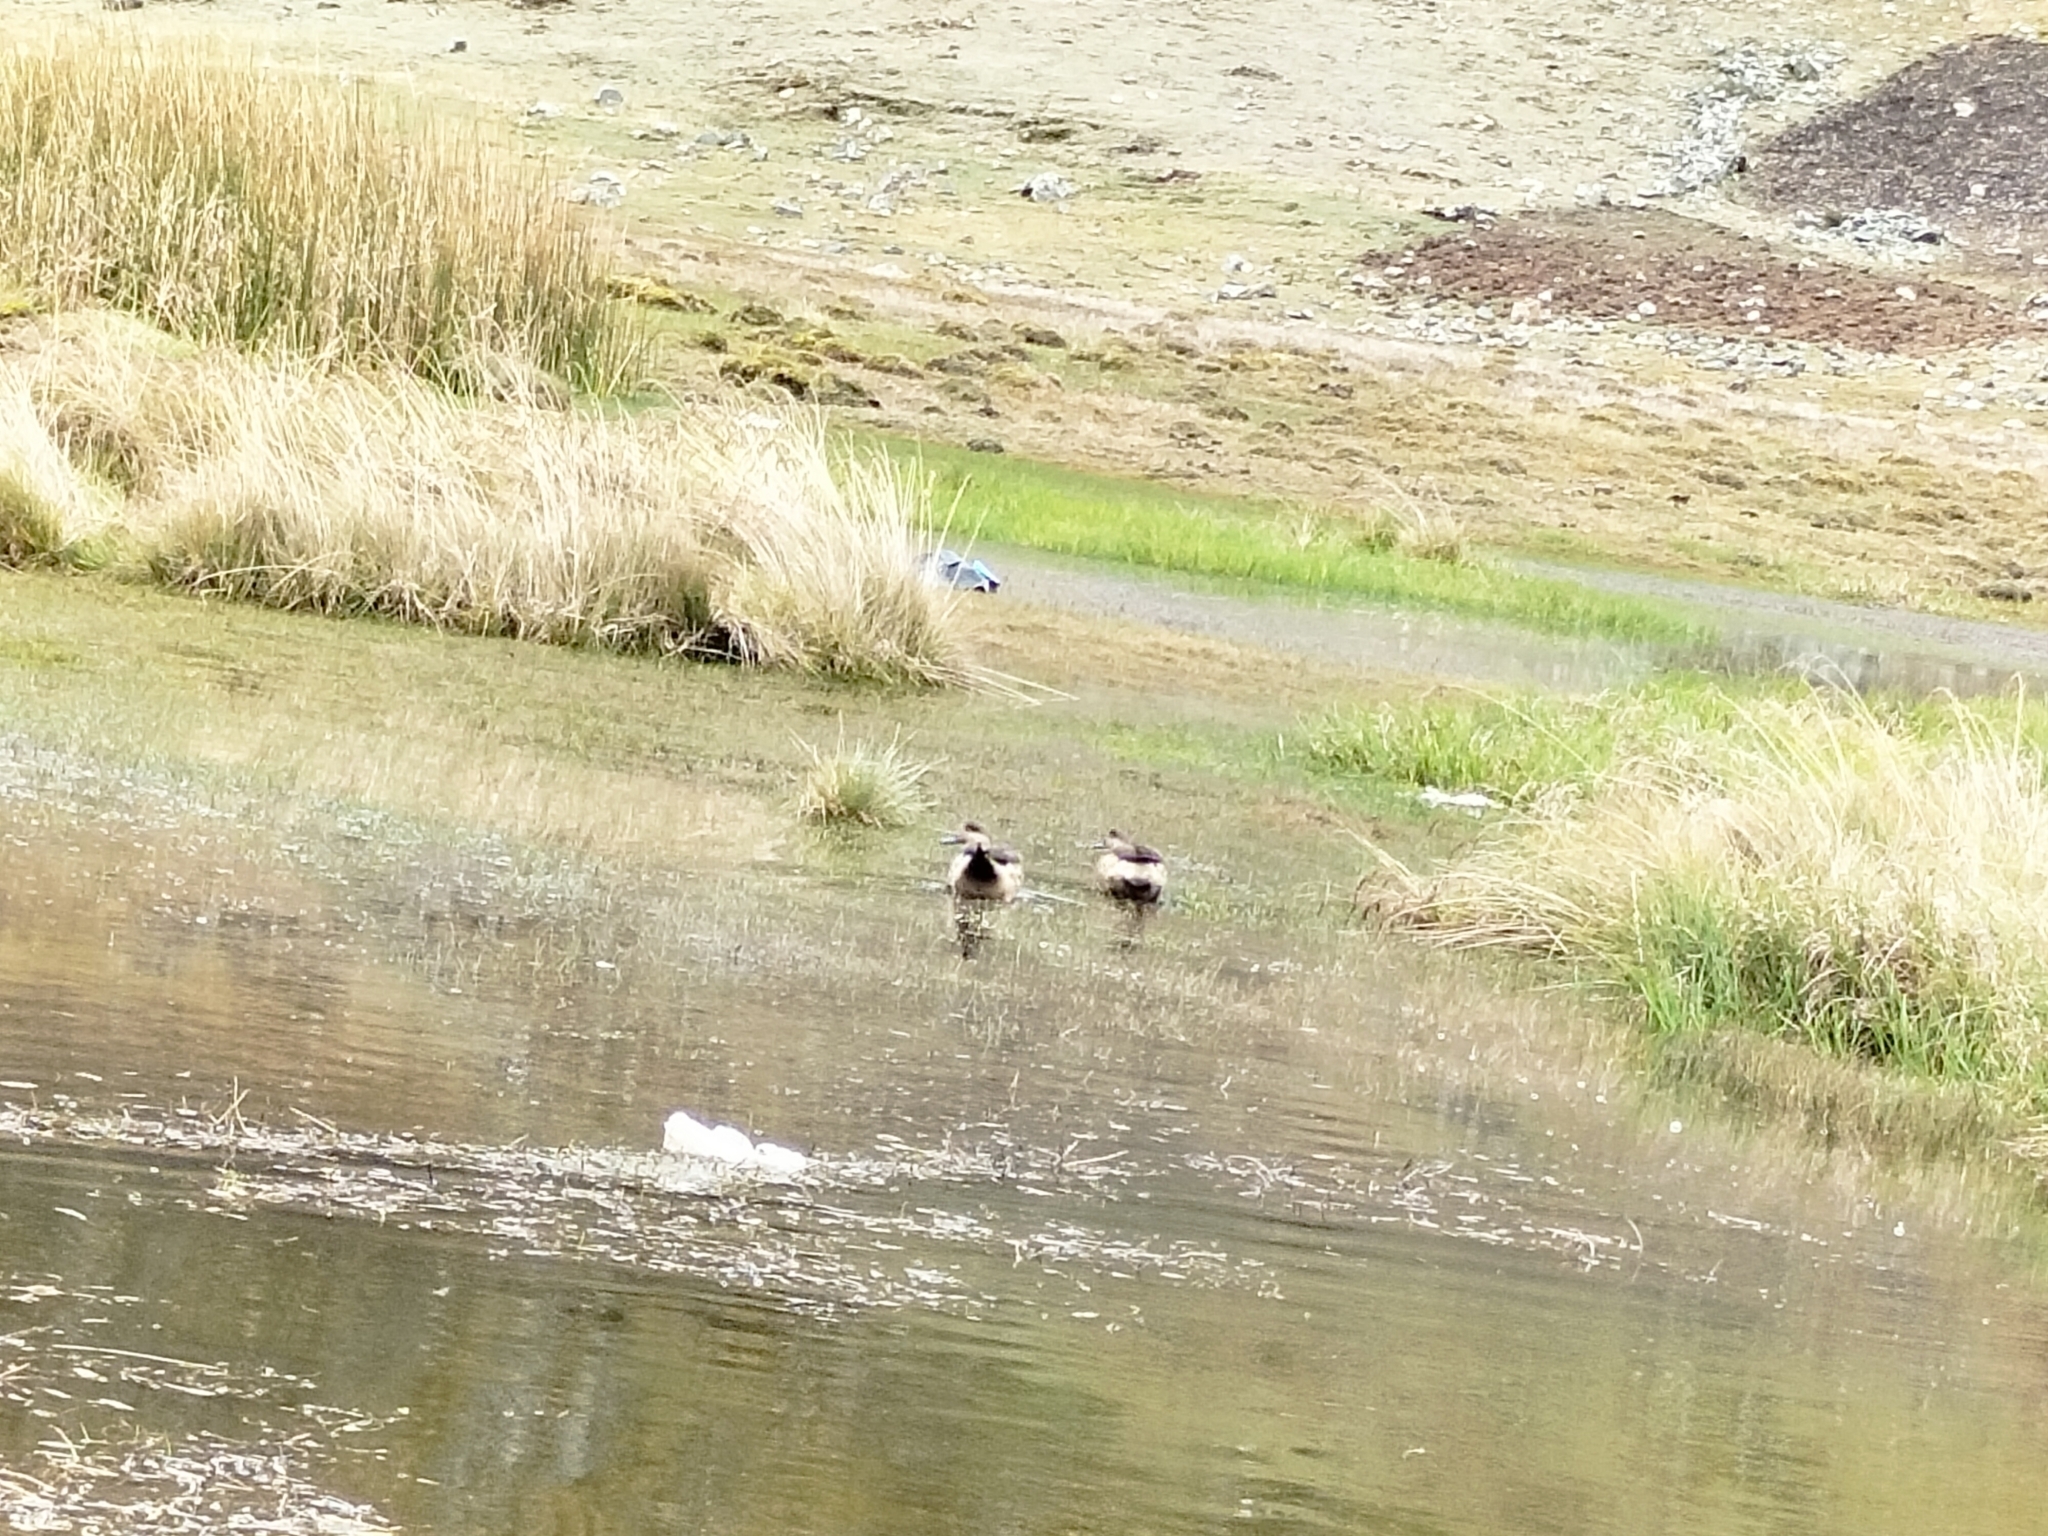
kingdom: Animalia
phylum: Chordata
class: Aves
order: Anseriformes
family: Anatidae
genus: Lophonetta
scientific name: Lophonetta specularioides
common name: Crested duck
